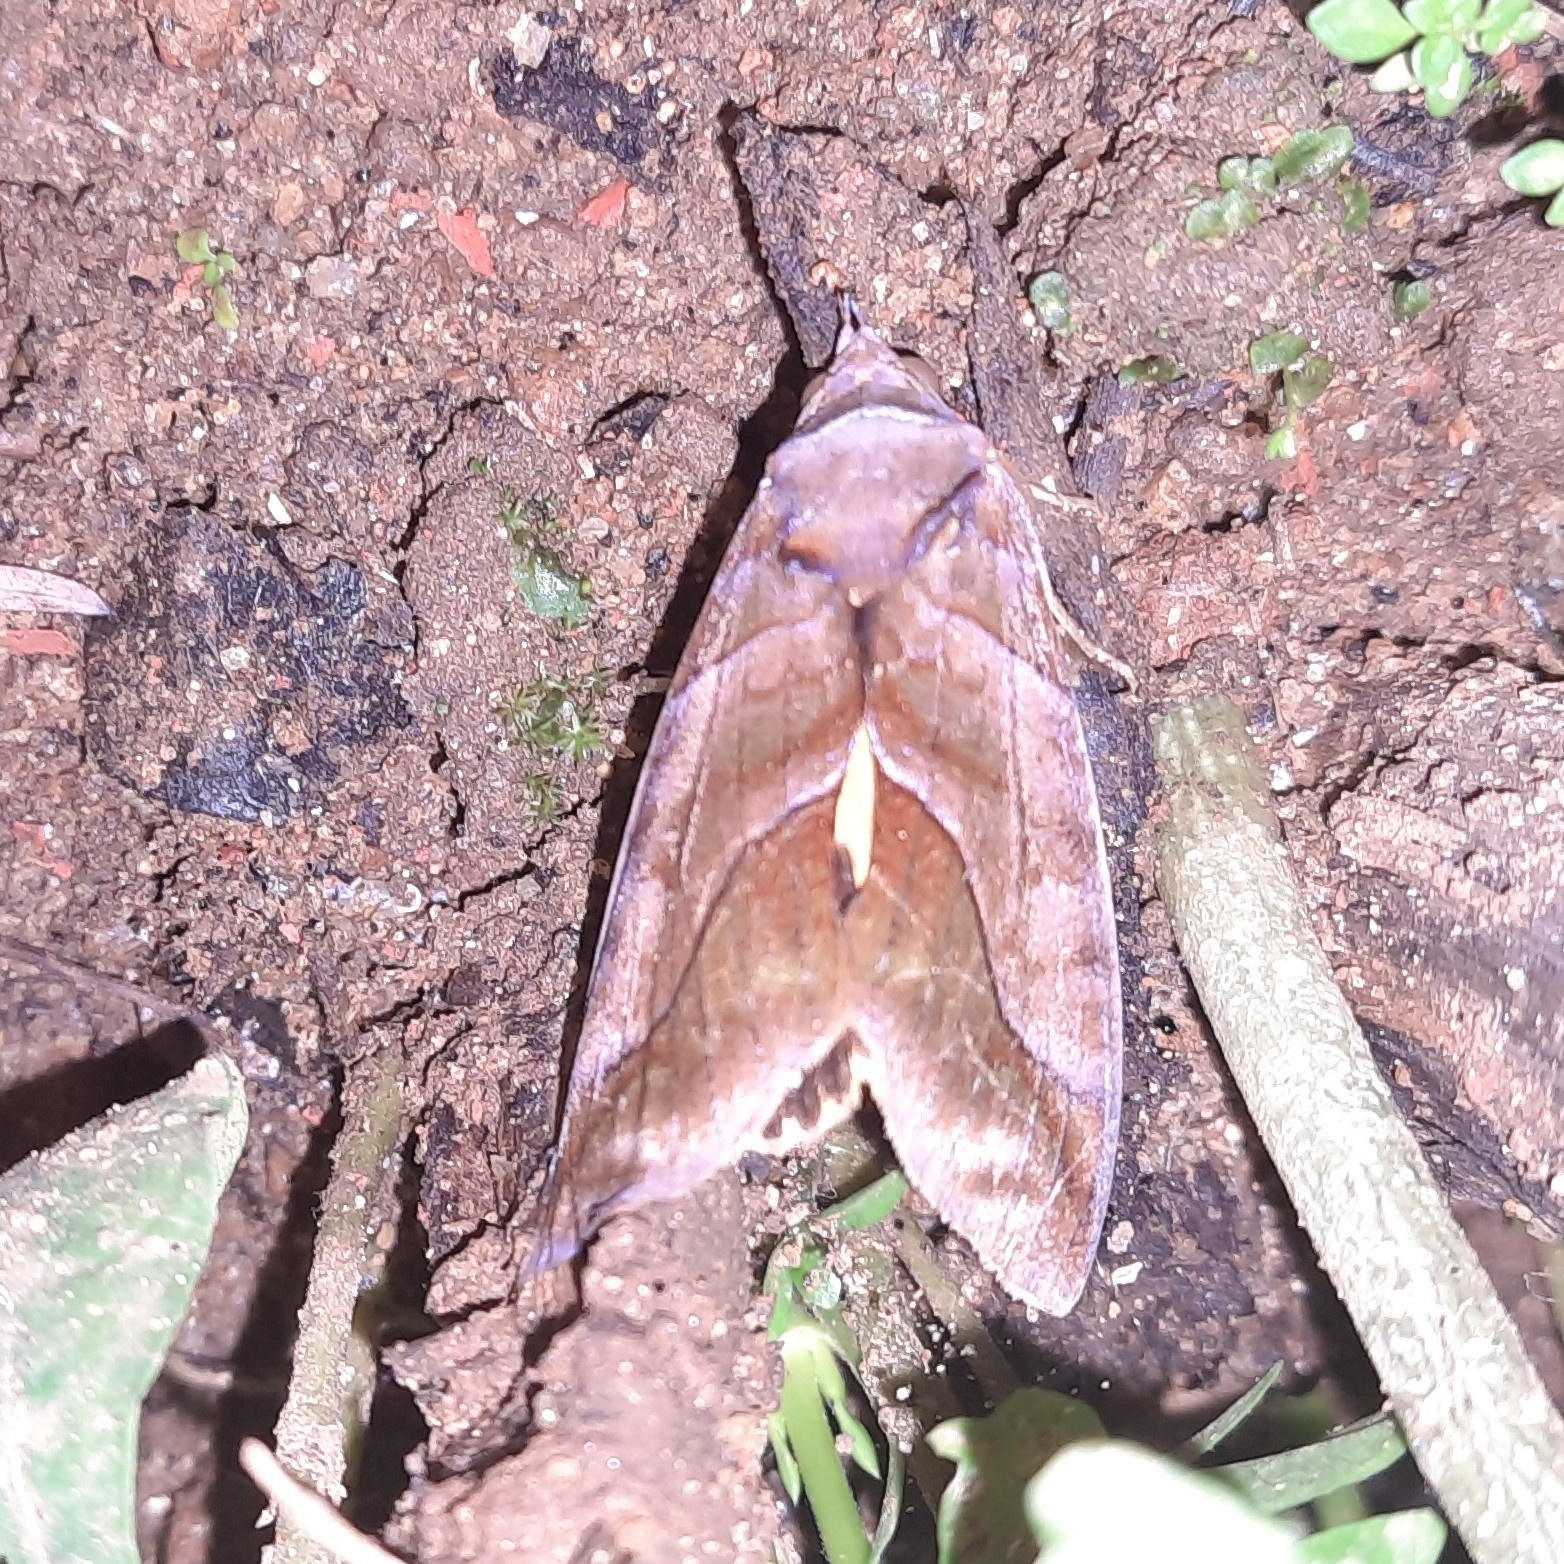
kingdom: Animalia
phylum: Arthropoda
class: Insecta
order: Lepidoptera
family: Erebidae
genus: Eudocima
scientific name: Eudocima homaena
